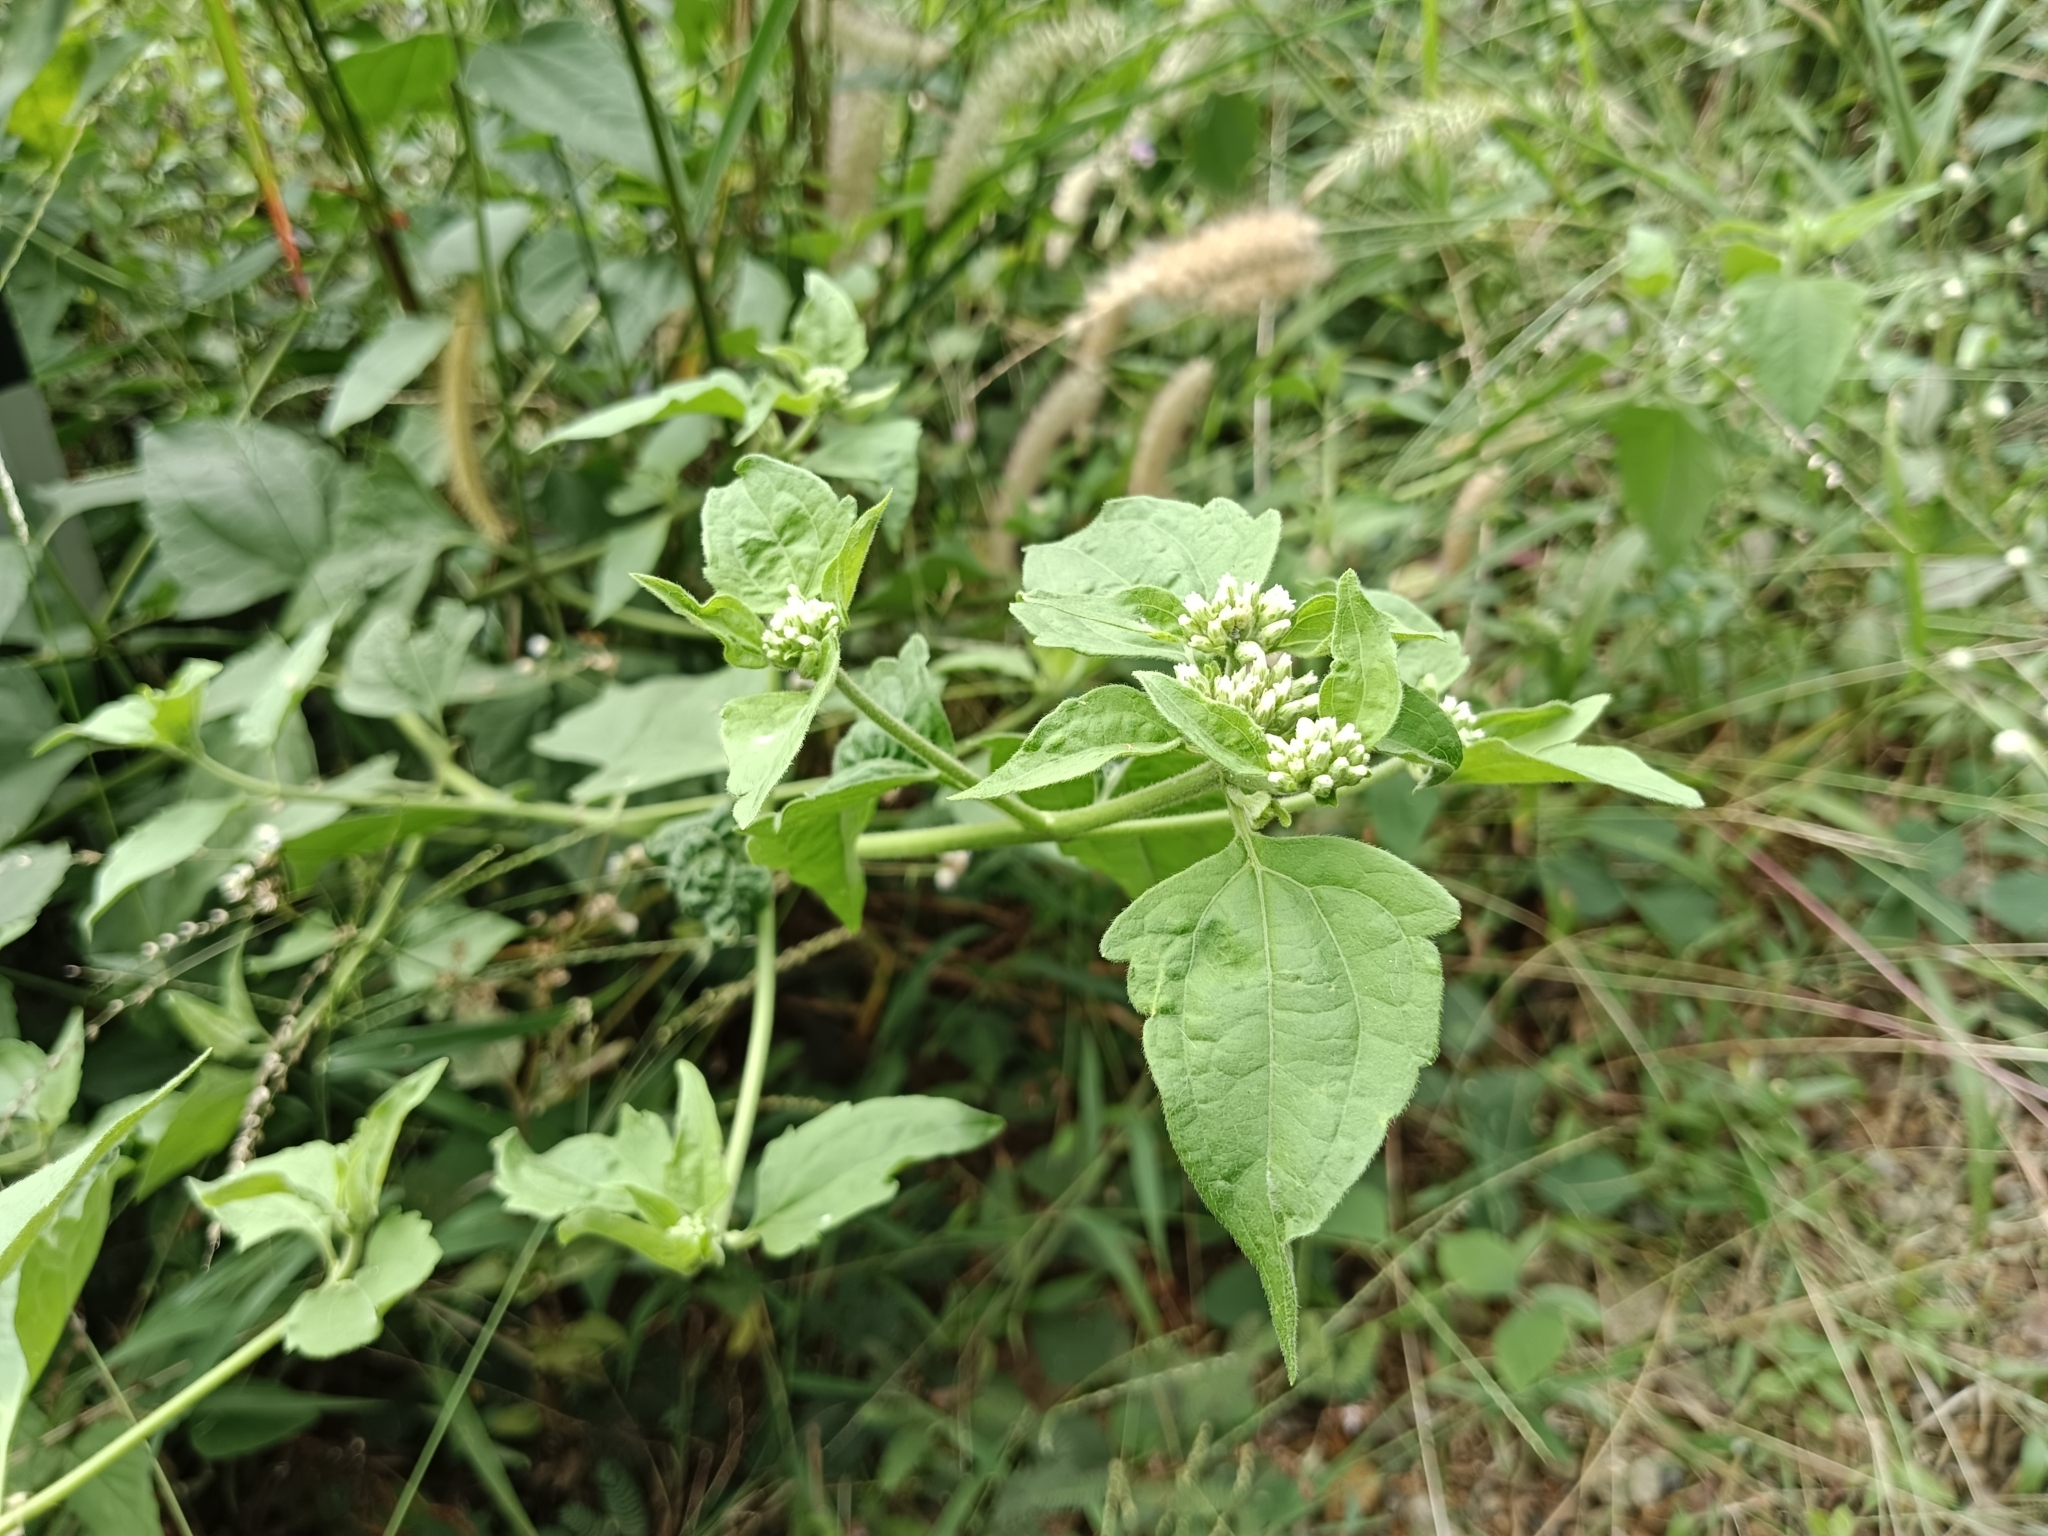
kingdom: Plantae
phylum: Tracheophyta
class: Magnoliopsida
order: Asterales
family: Asteraceae
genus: Chromolaena
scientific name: Chromolaena odorata
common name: Siamweed
